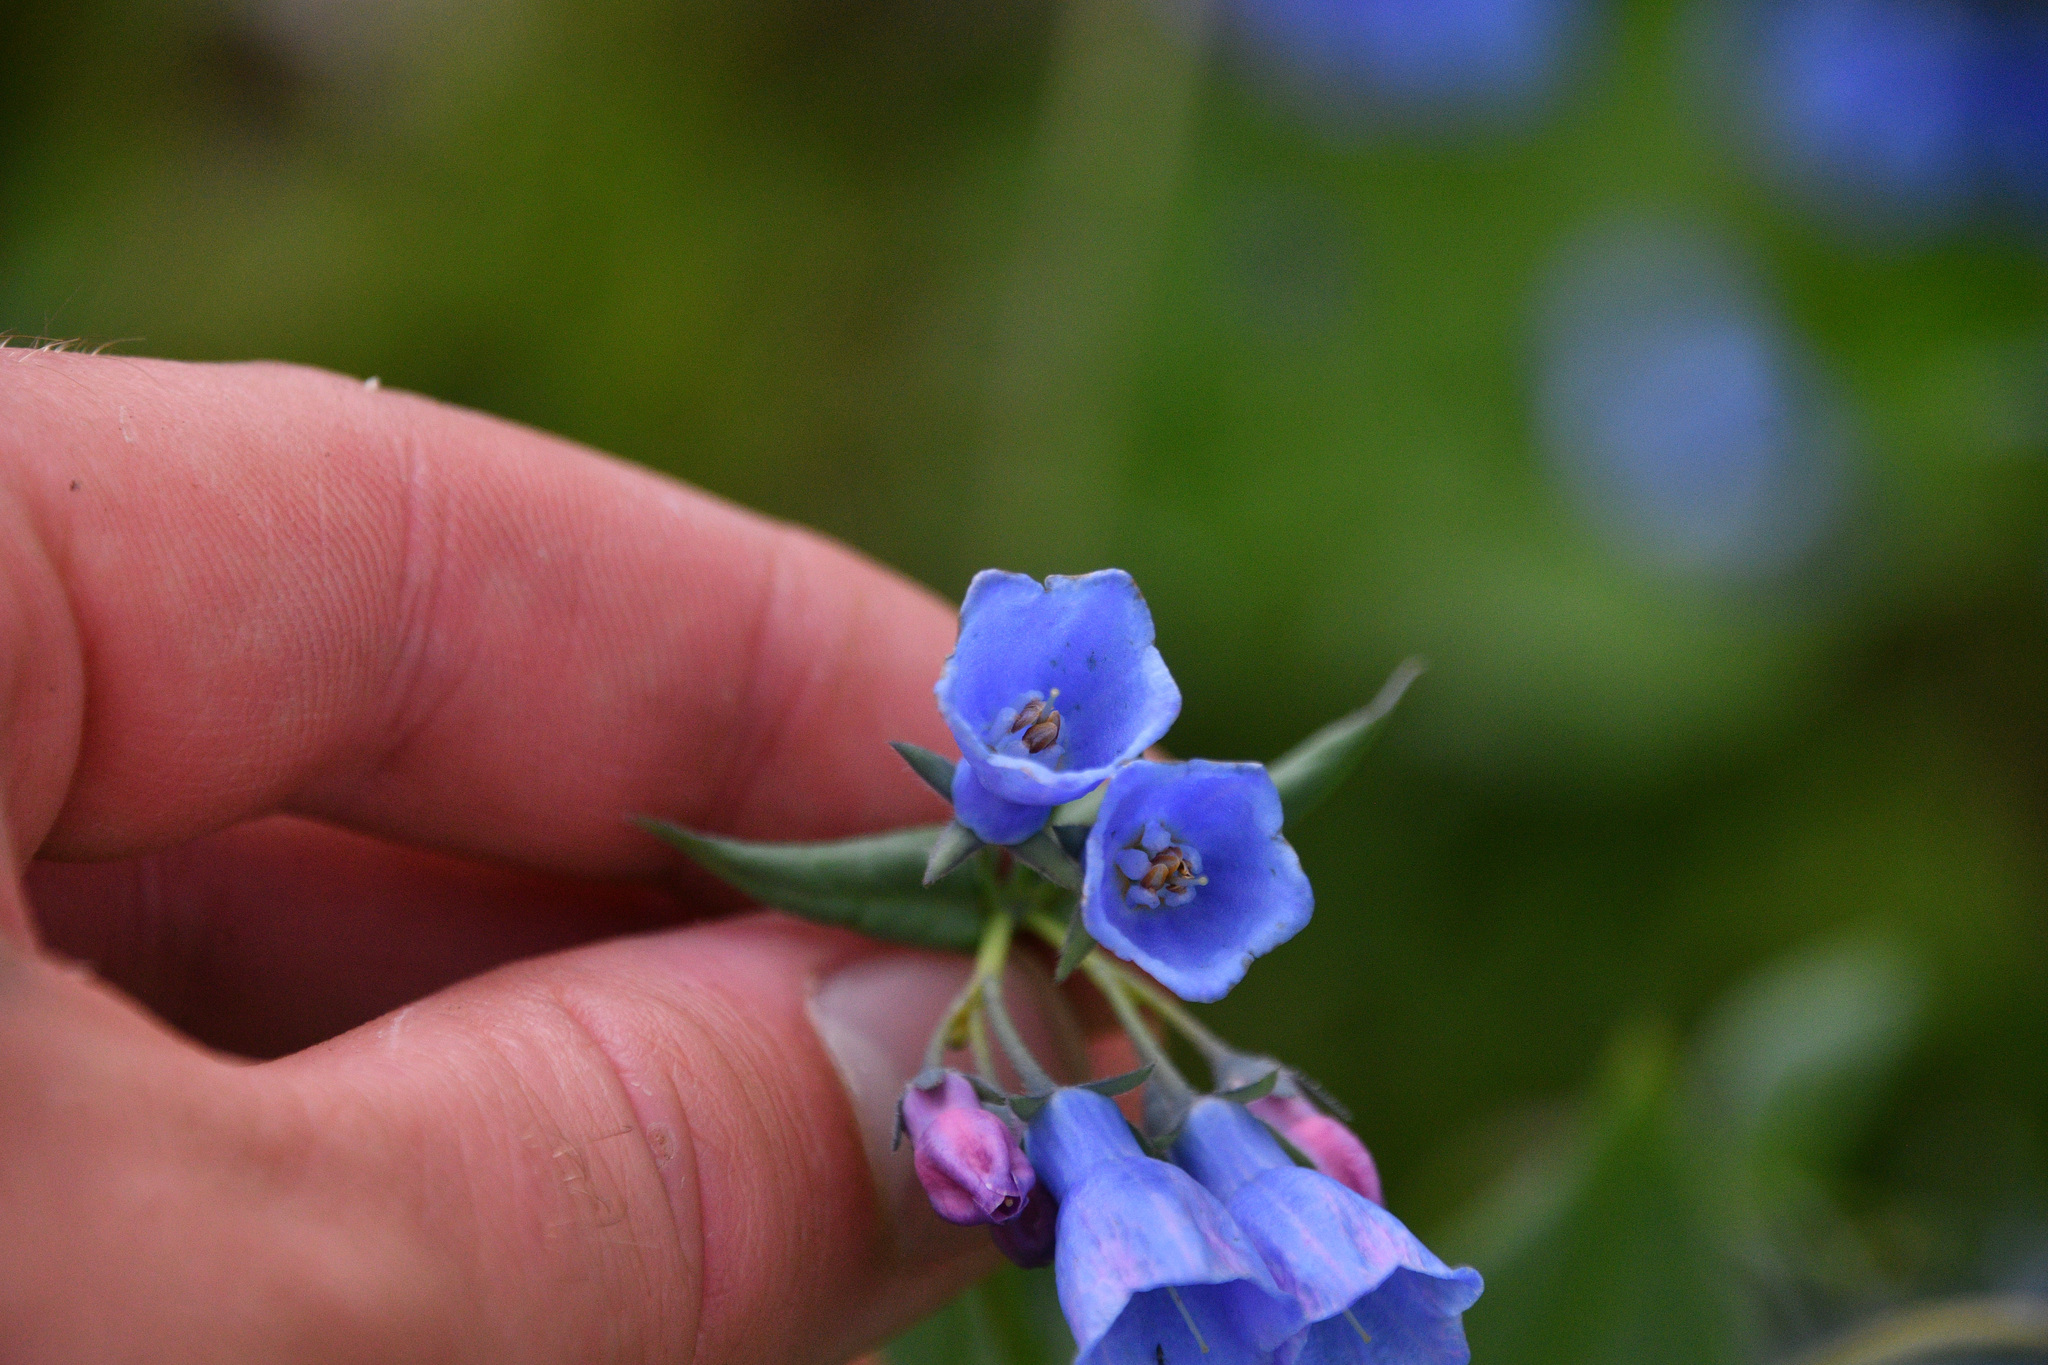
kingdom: Plantae
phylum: Tracheophyta
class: Magnoliopsida
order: Boraginales
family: Boraginaceae
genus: Mertensia
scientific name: Mertensia paniculata
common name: Panicled bluebells
